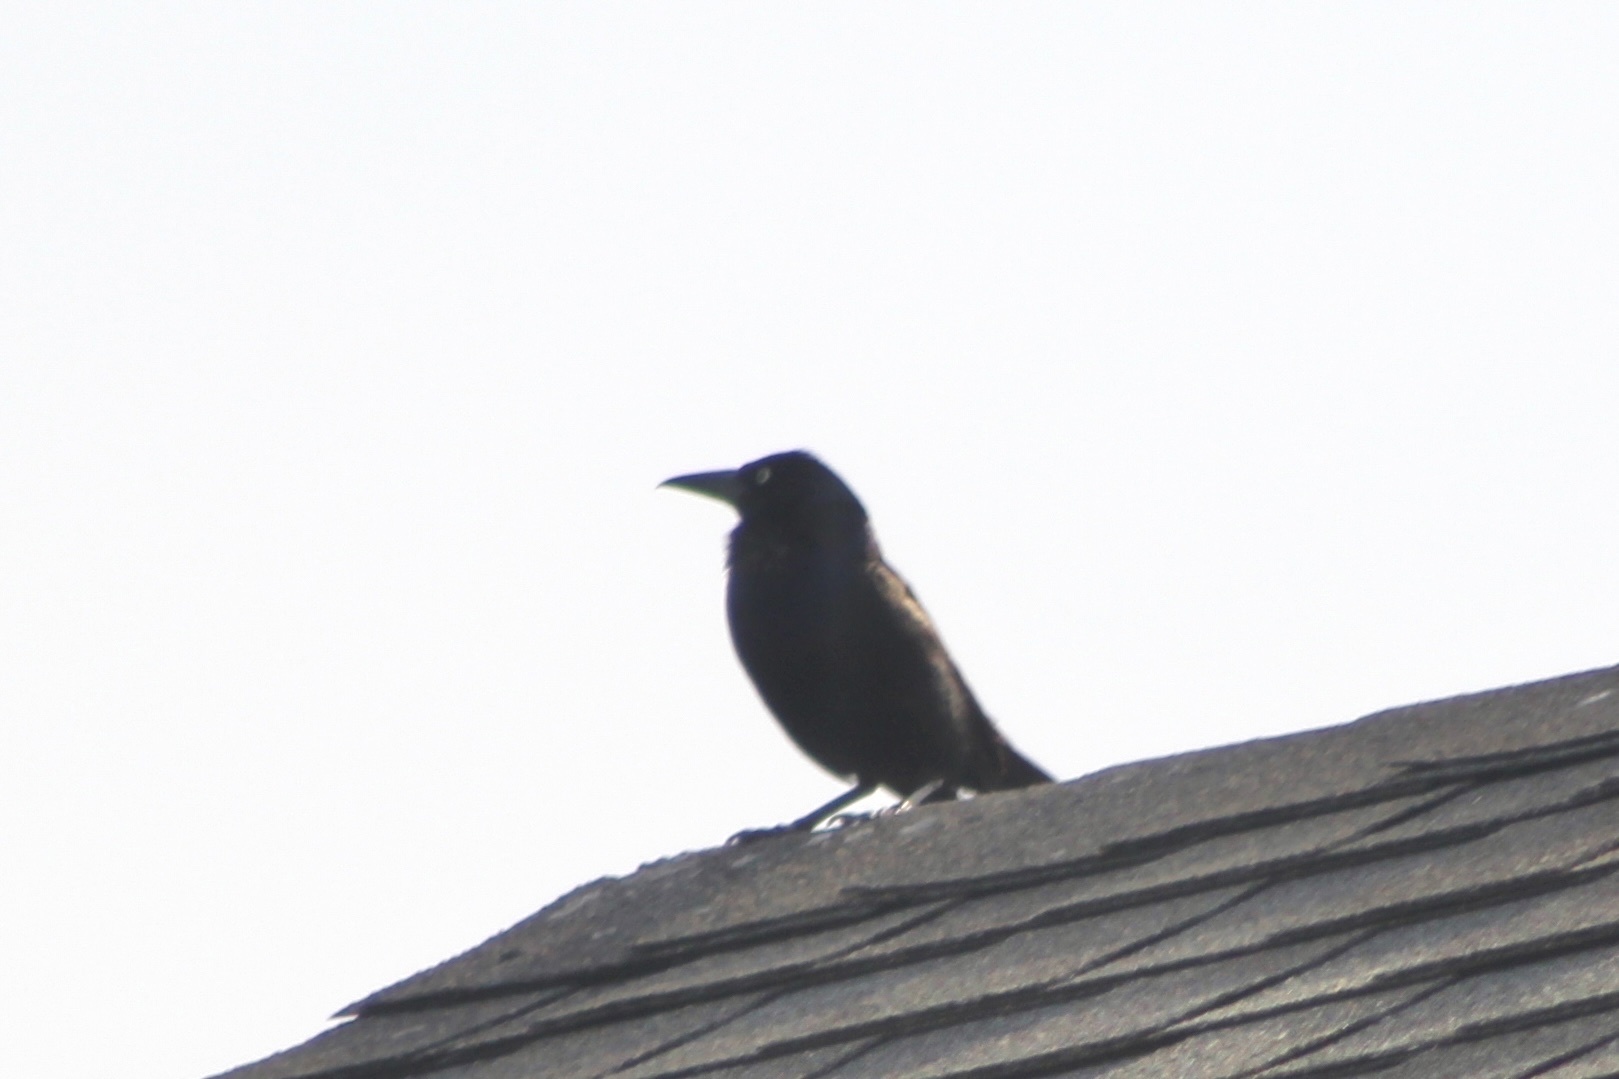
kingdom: Animalia
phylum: Chordata
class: Aves
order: Passeriformes
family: Icteridae
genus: Quiscalus
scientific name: Quiscalus quiscula
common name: Common grackle
